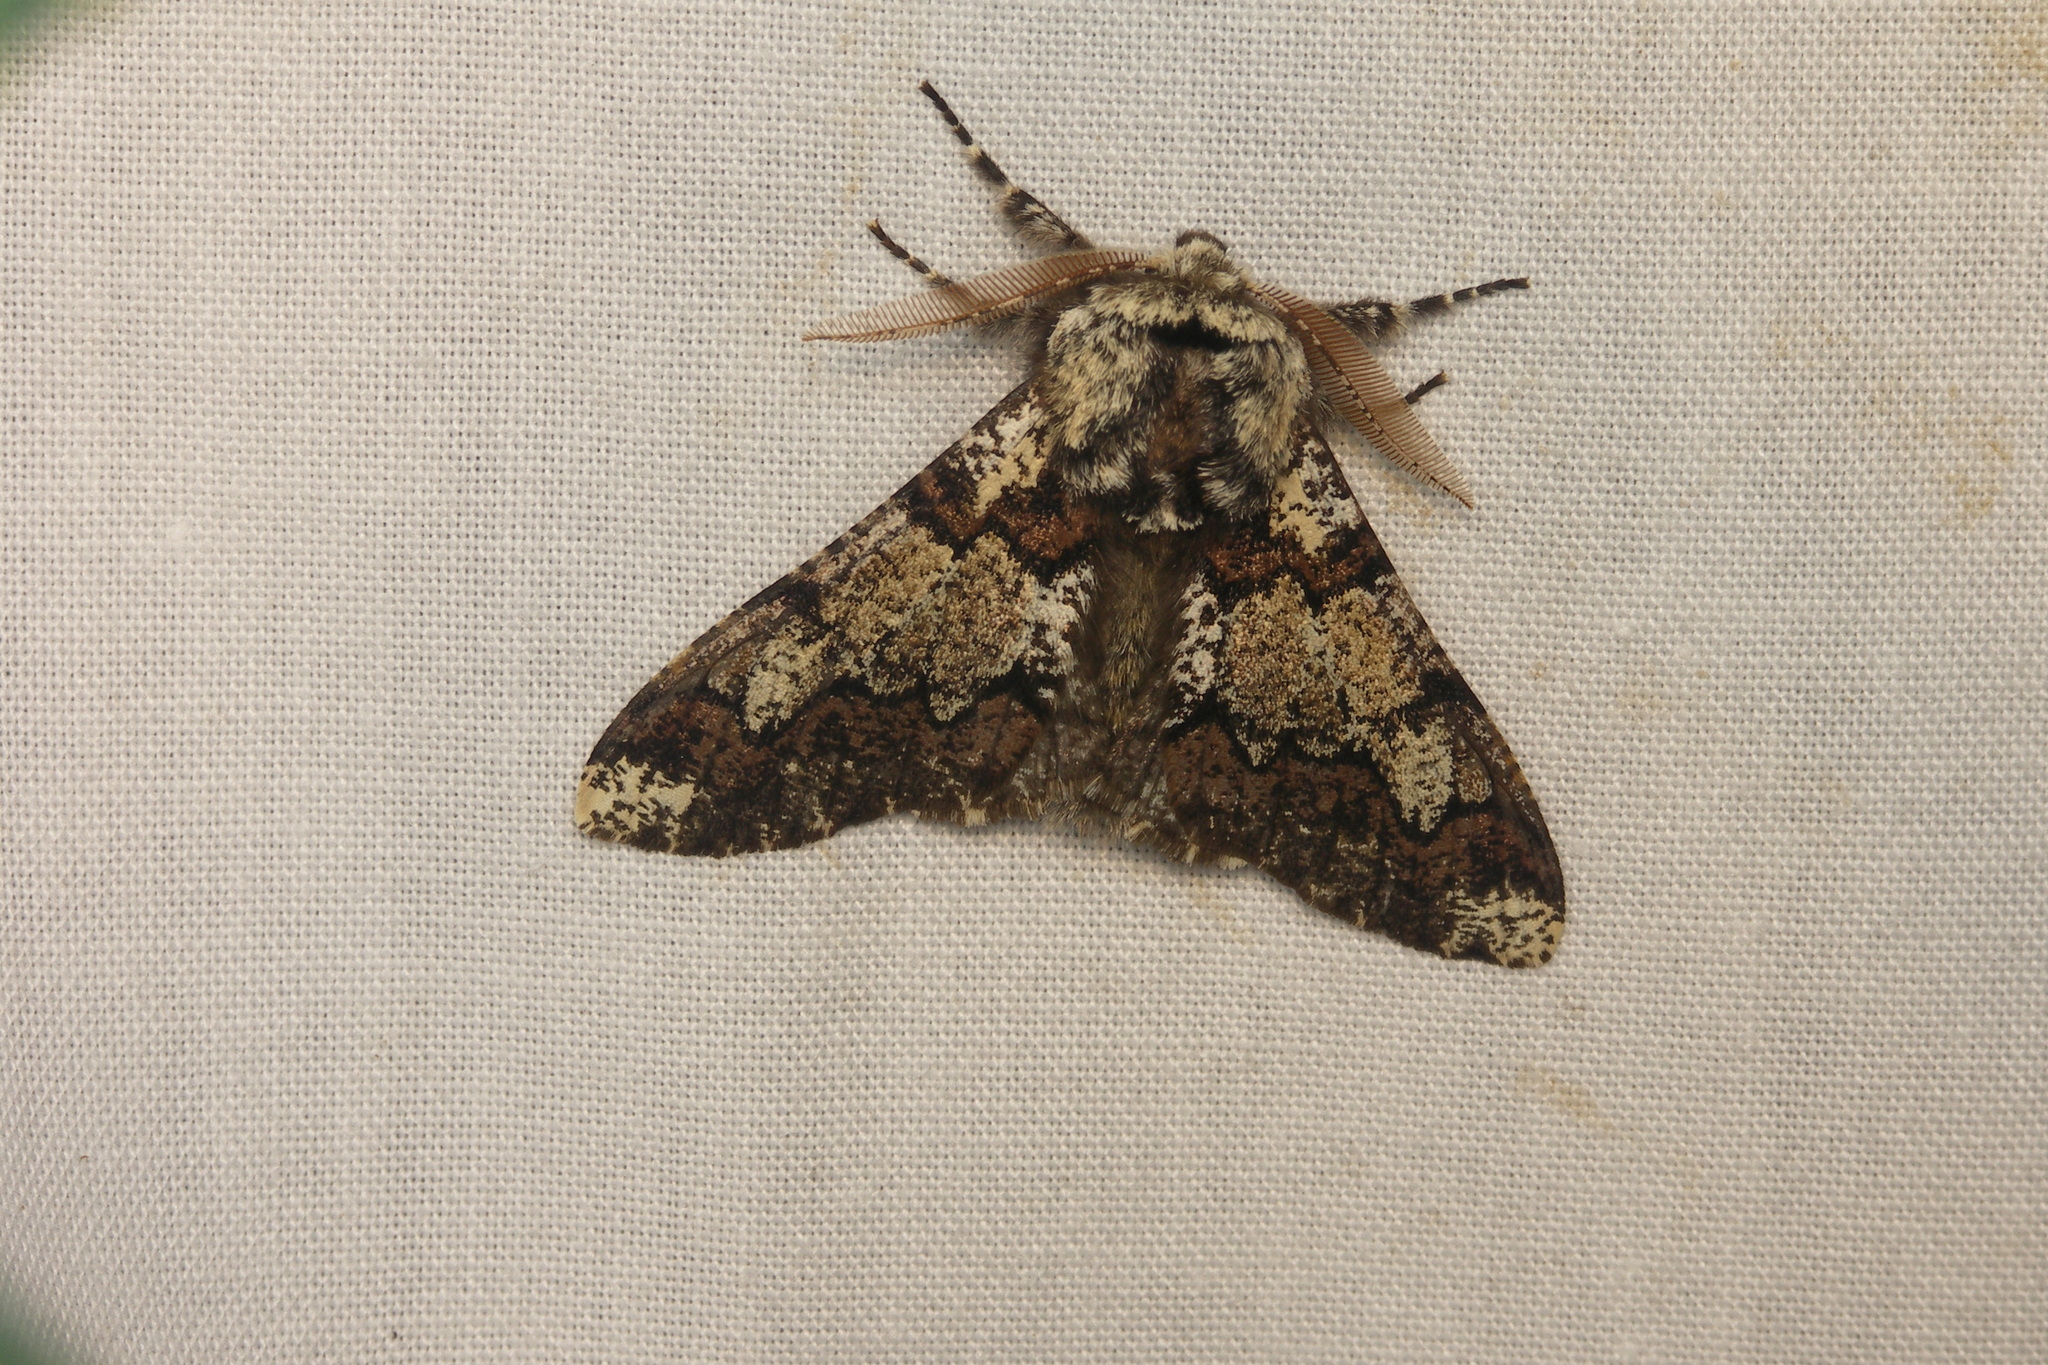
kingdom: Animalia
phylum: Arthropoda
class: Insecta
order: Lepidoptera
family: Geometridae
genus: Biston
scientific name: Biston strataria
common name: Oak beauty
